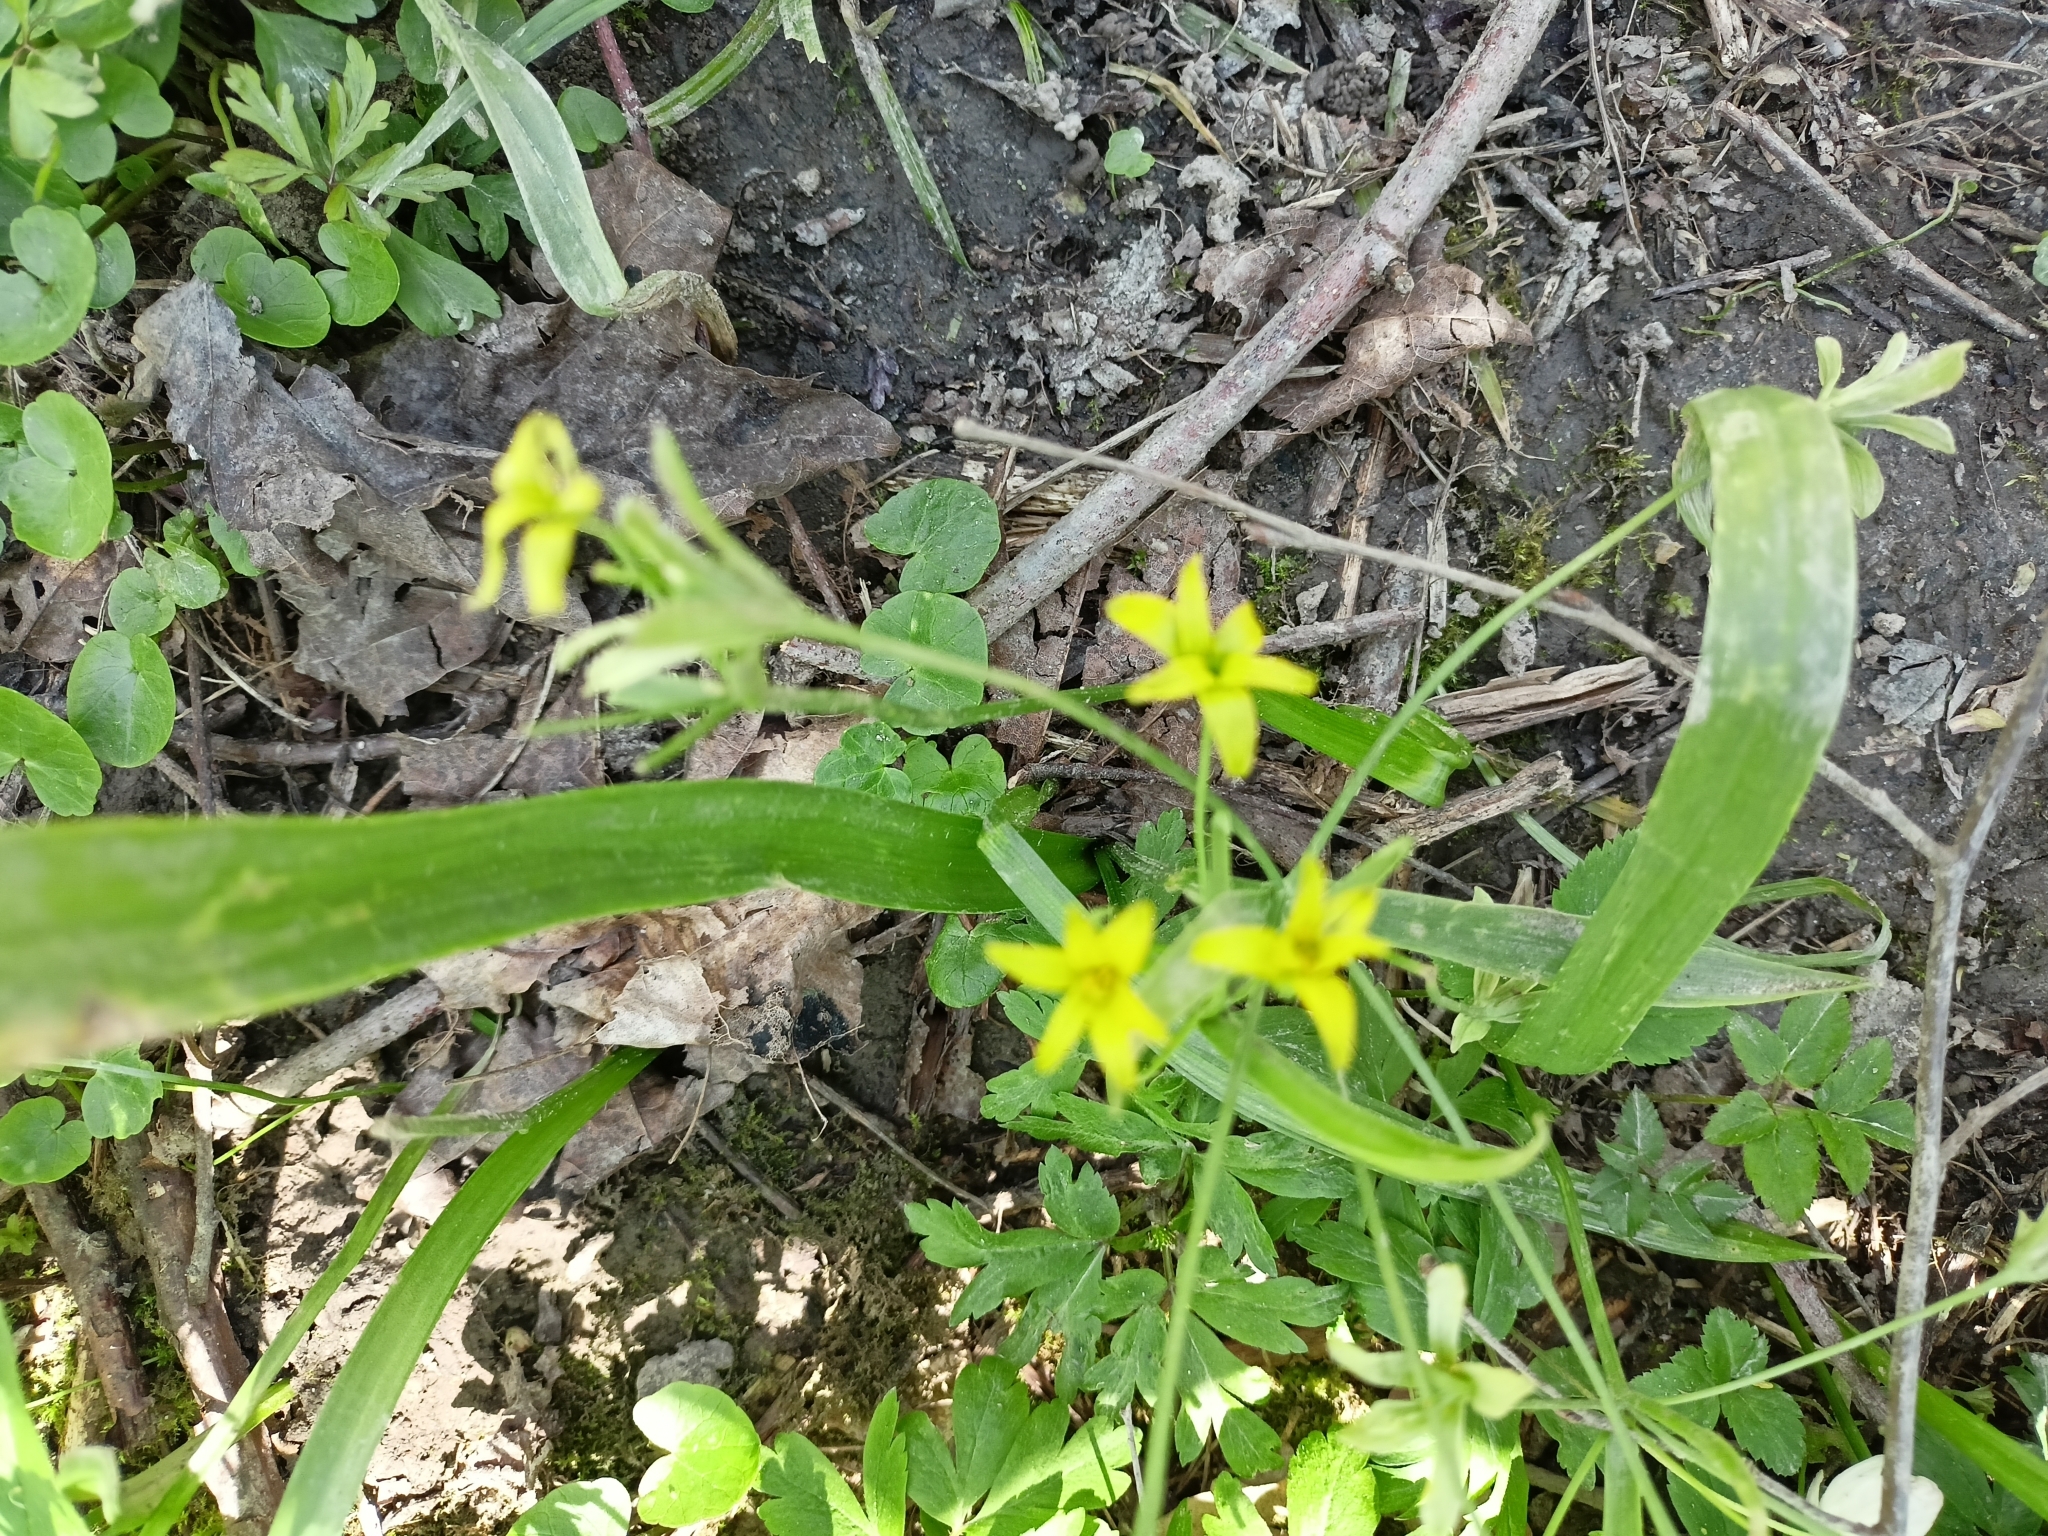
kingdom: Plantae
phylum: Tracheophyta
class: Liliopsida
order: Liliales
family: Liliaceae
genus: Gagea
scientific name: Gagea lutea
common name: Yellow star-of-bethlehem
